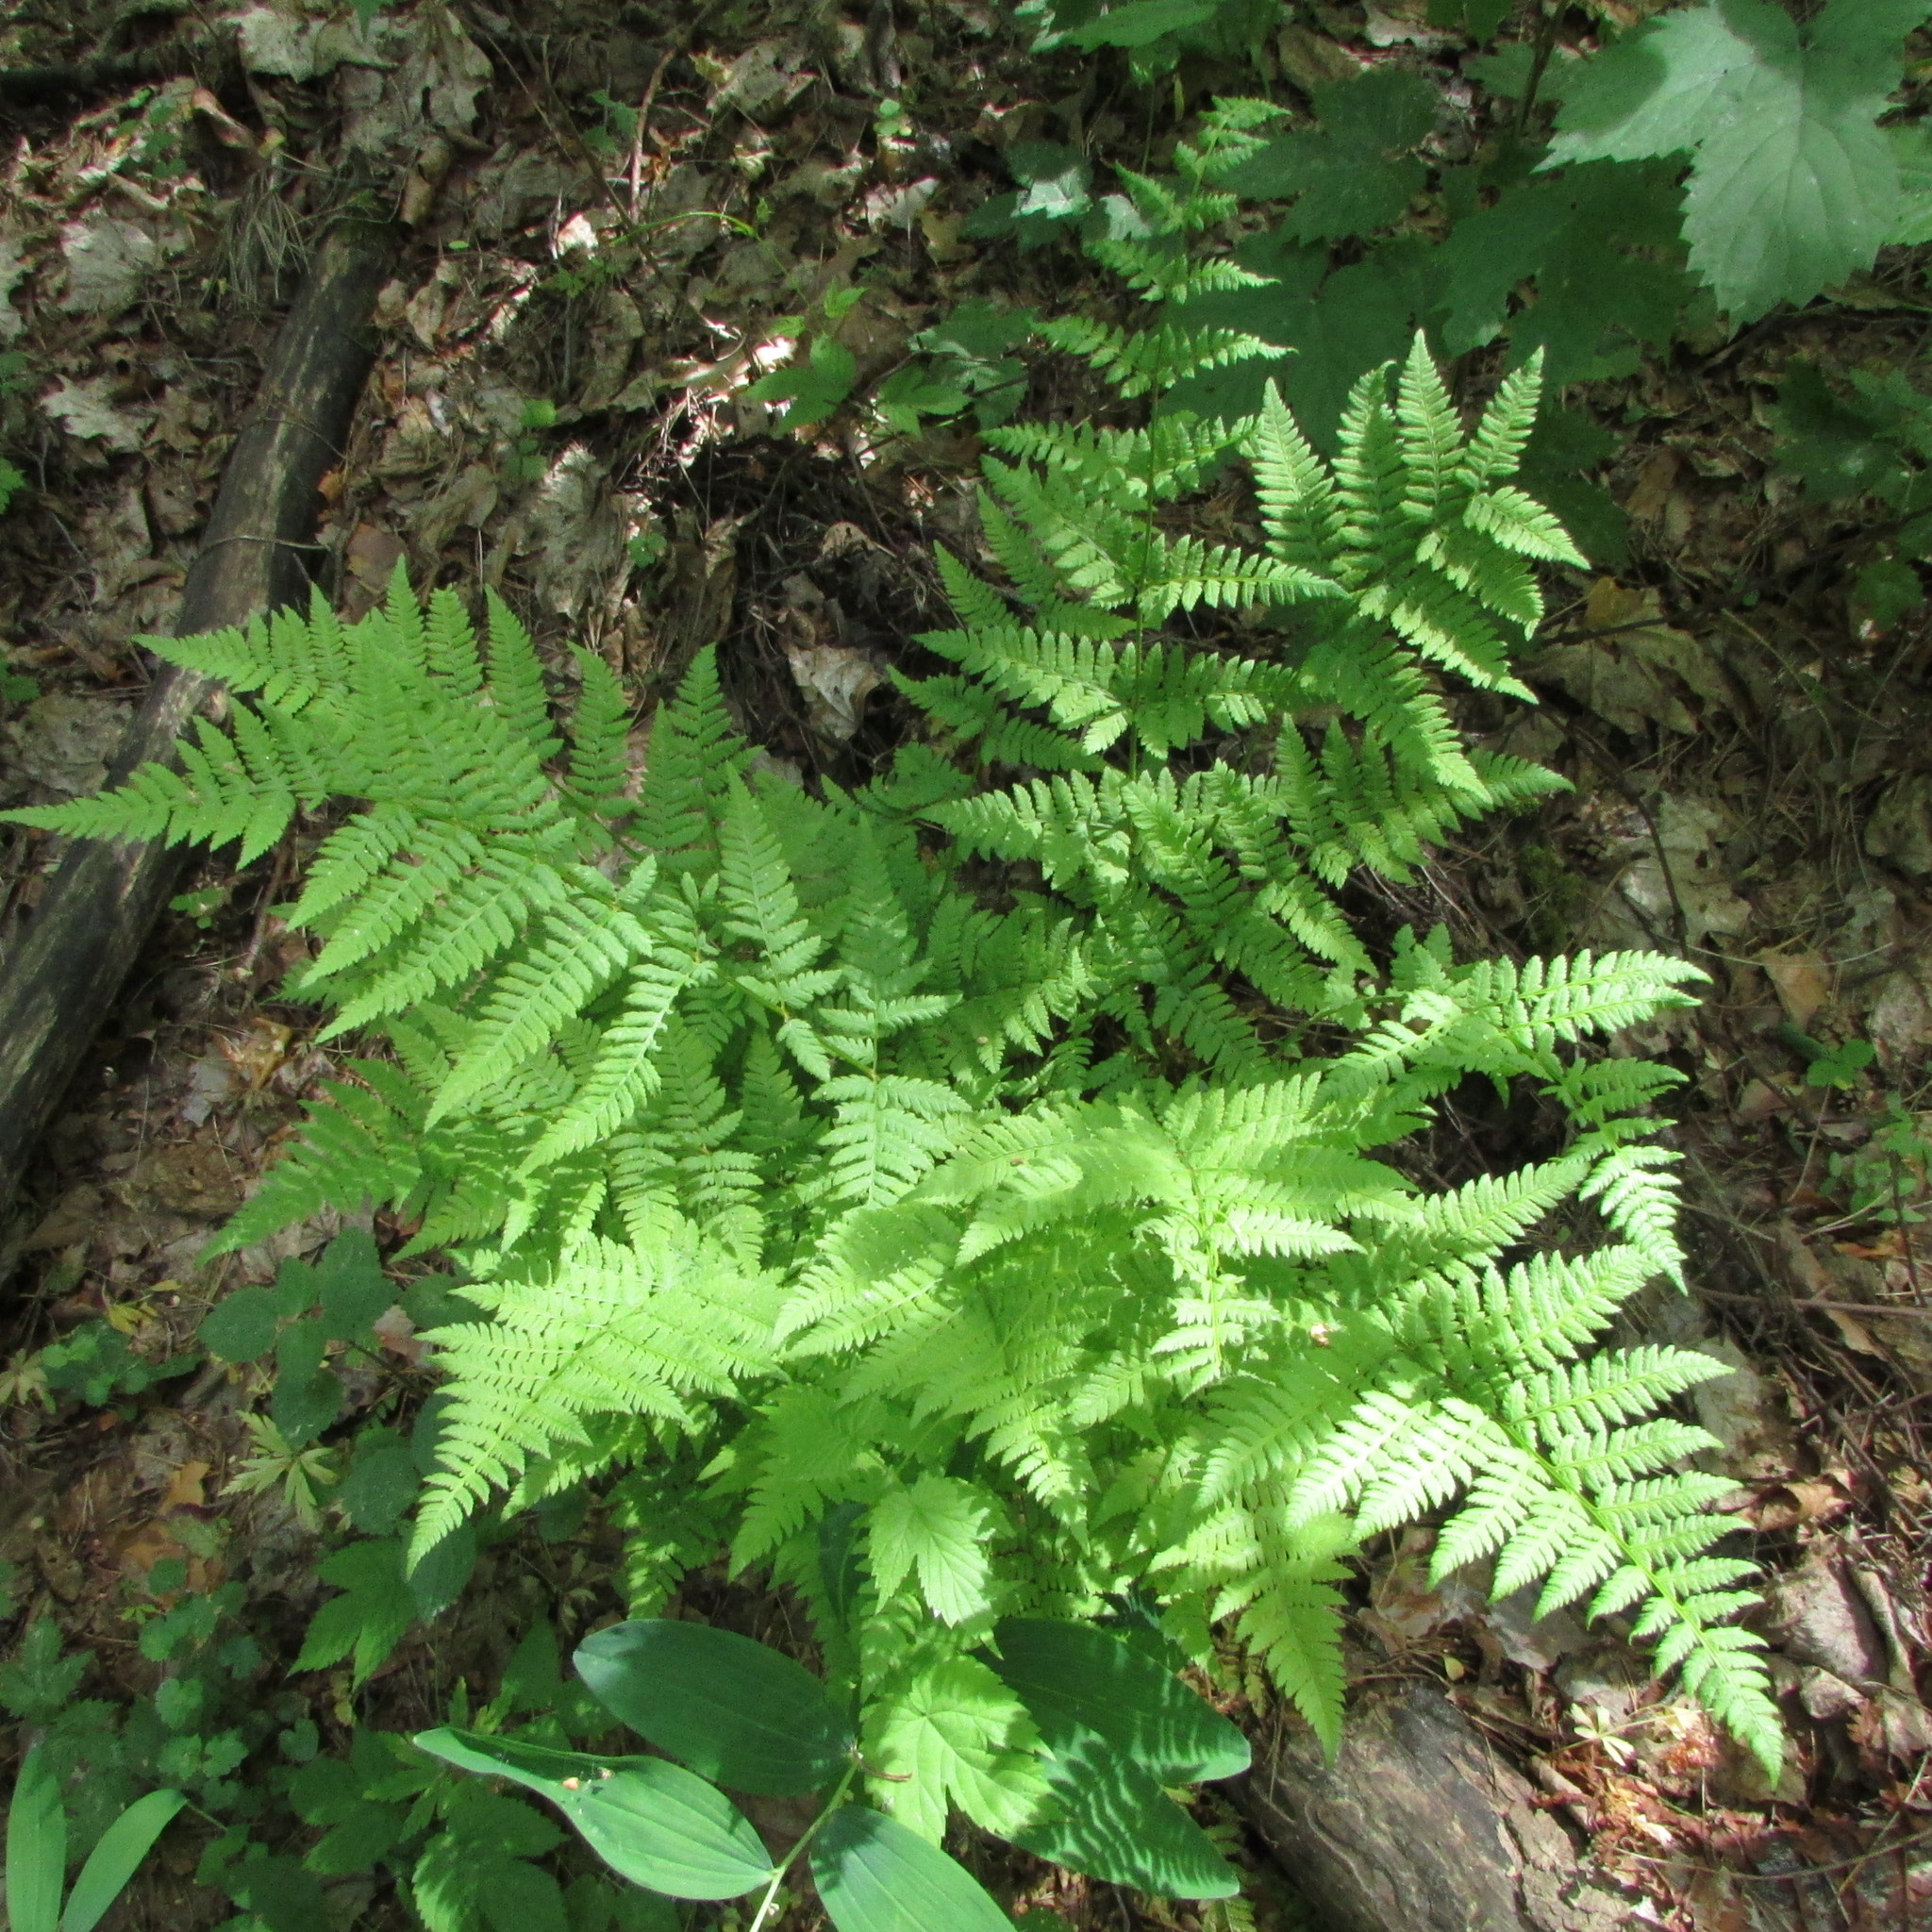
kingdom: Plantae
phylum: Tracheophyta
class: Polypodiopsida
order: Polypodiales
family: Dryopteridaceae
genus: Dryopteris
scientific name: Dryopteris carthusiana
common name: Narrow buckler-fern
